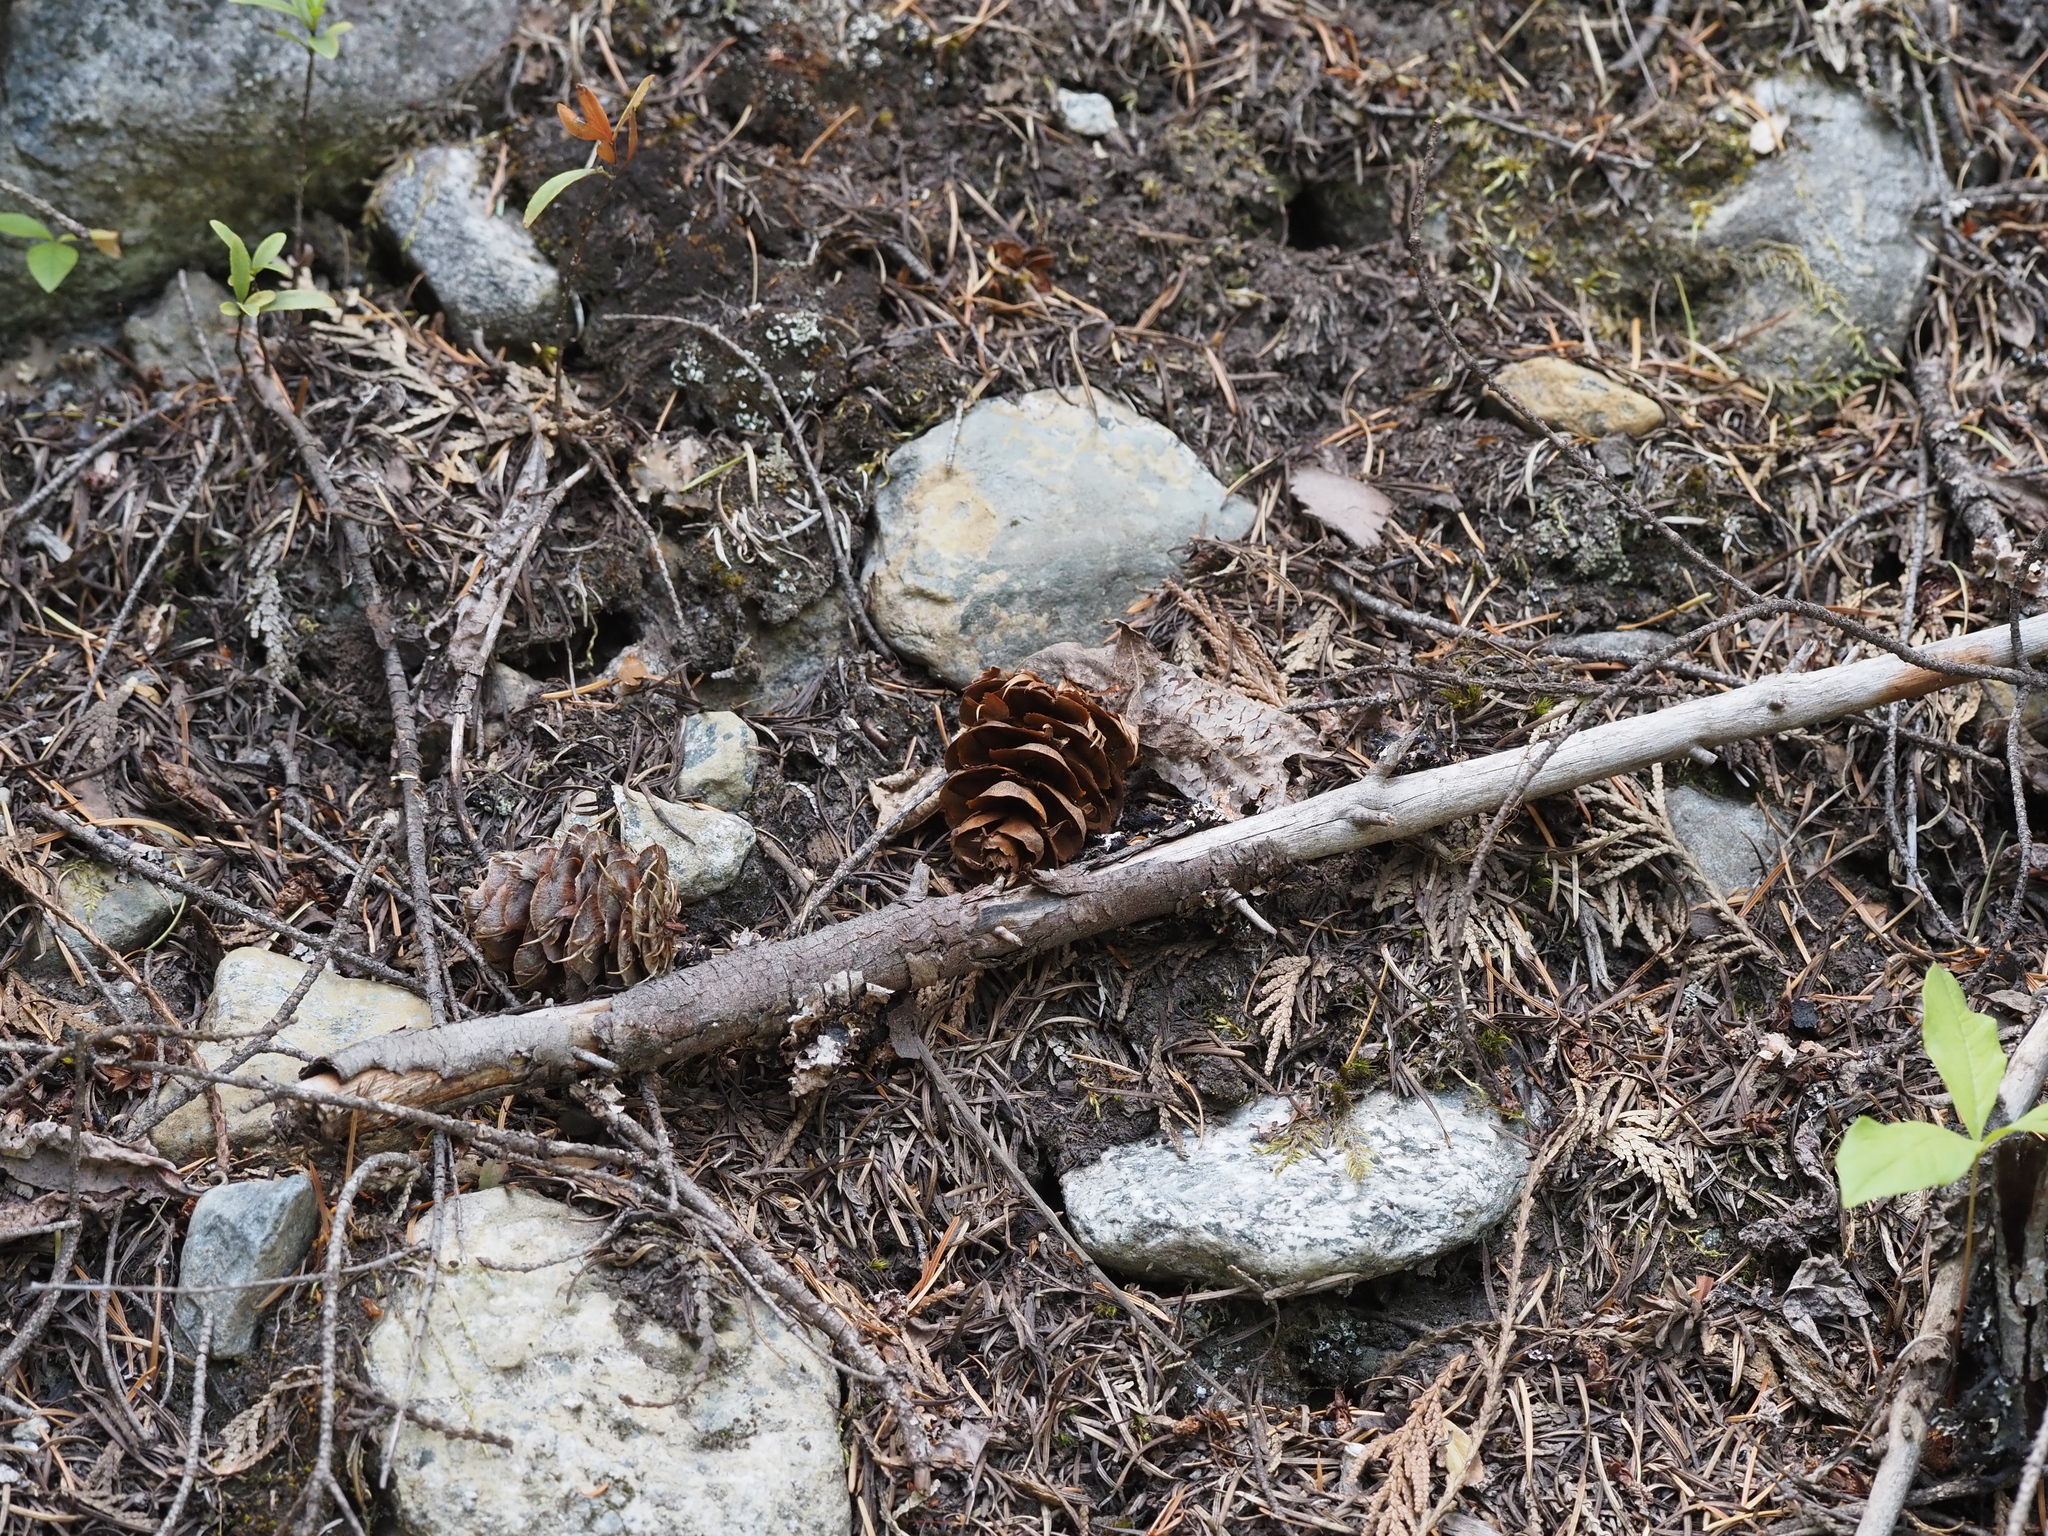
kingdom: Plantae
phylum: Tracheophyta
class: Pinopsida
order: Pinales
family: Pinaceae
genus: Pseudotsuga
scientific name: Pseudotsuga menziesii
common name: Douglas fir
